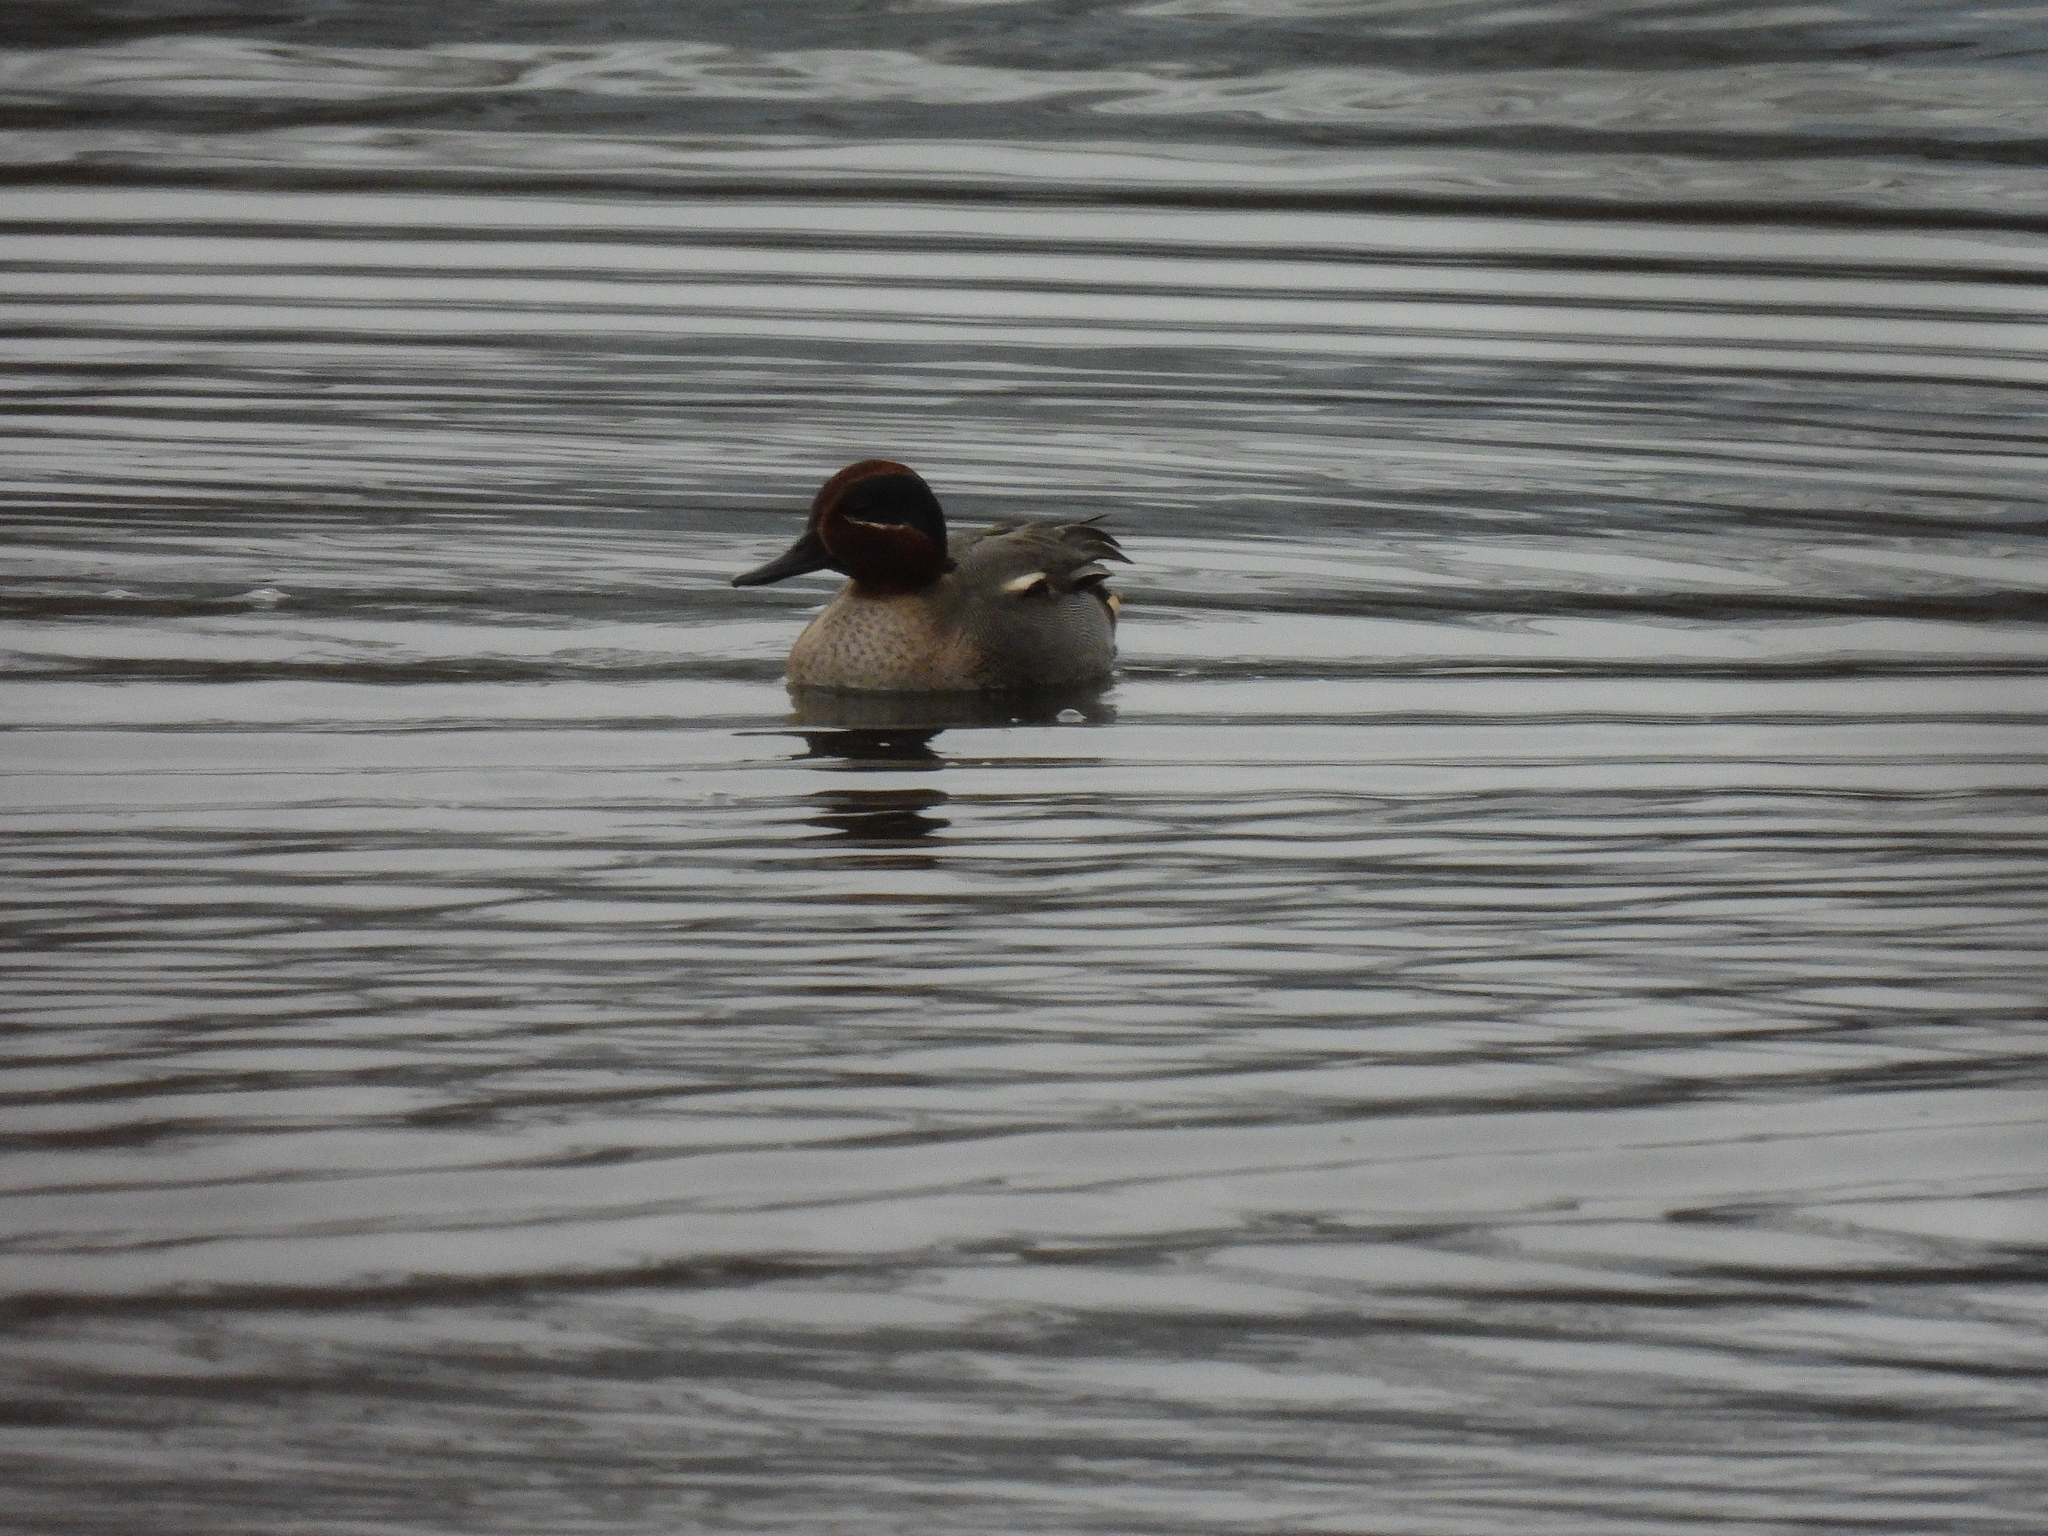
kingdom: Animalia
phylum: Chordata
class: Aves
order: Anseriformes
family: Anatidae
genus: Anas
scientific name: Anas crecca
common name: Eurasian teal
